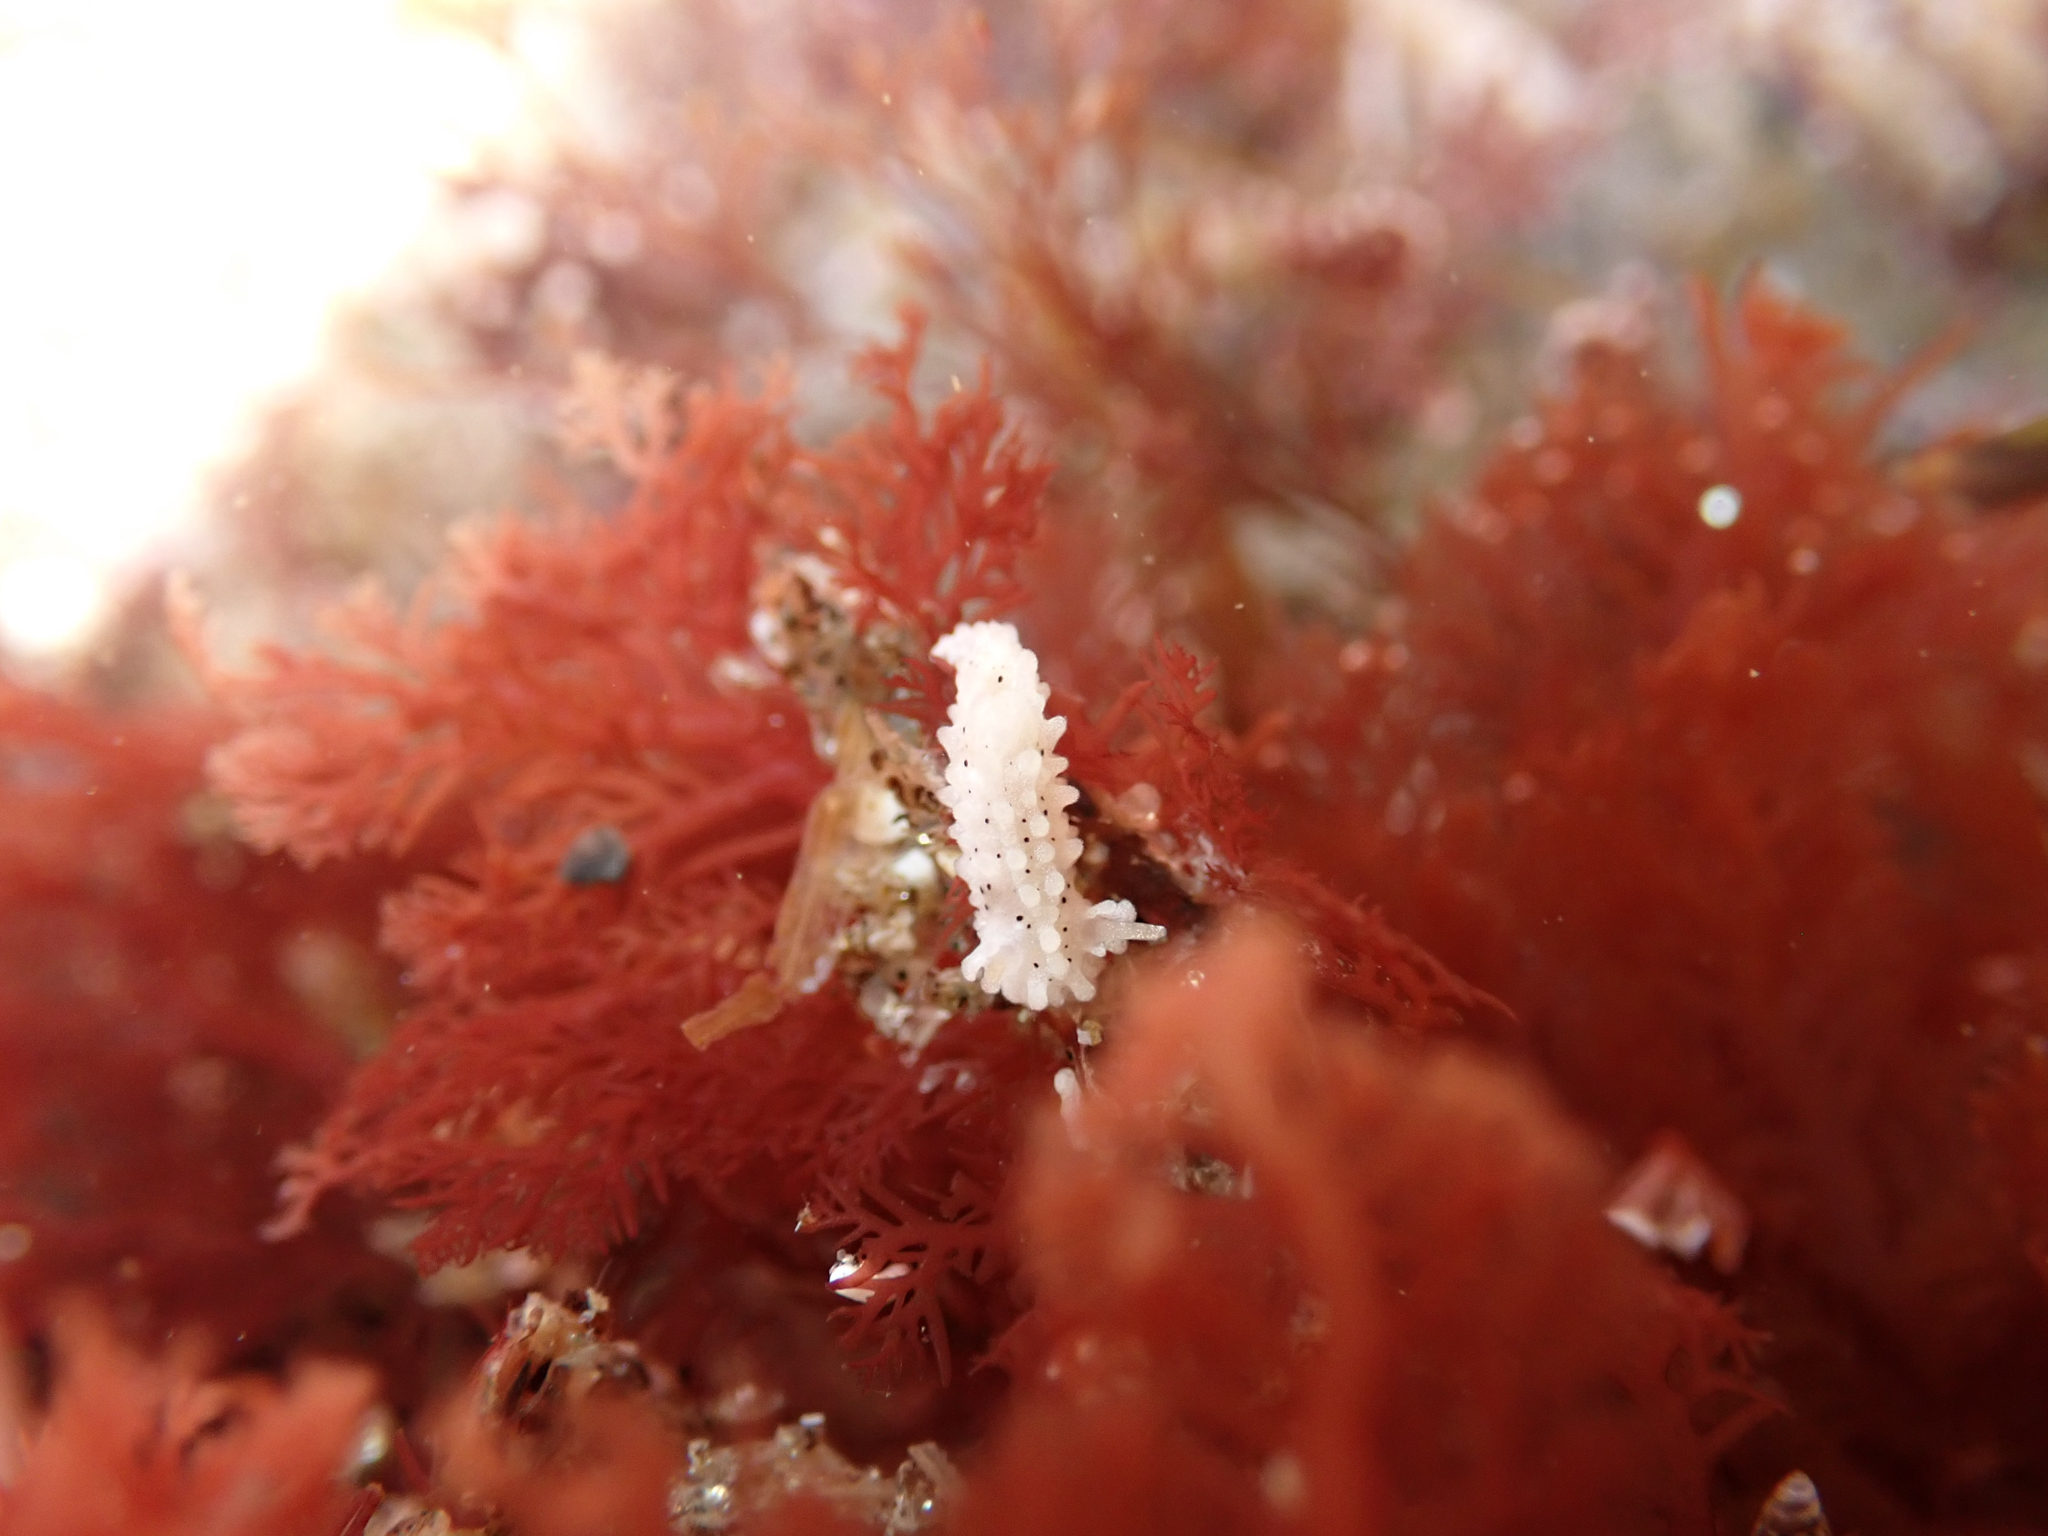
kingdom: Animalia
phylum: Mollusca
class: Gastropoda
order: Nudibranchia
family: Aegiridae
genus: Aegires
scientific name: Aegires albopunctatus
